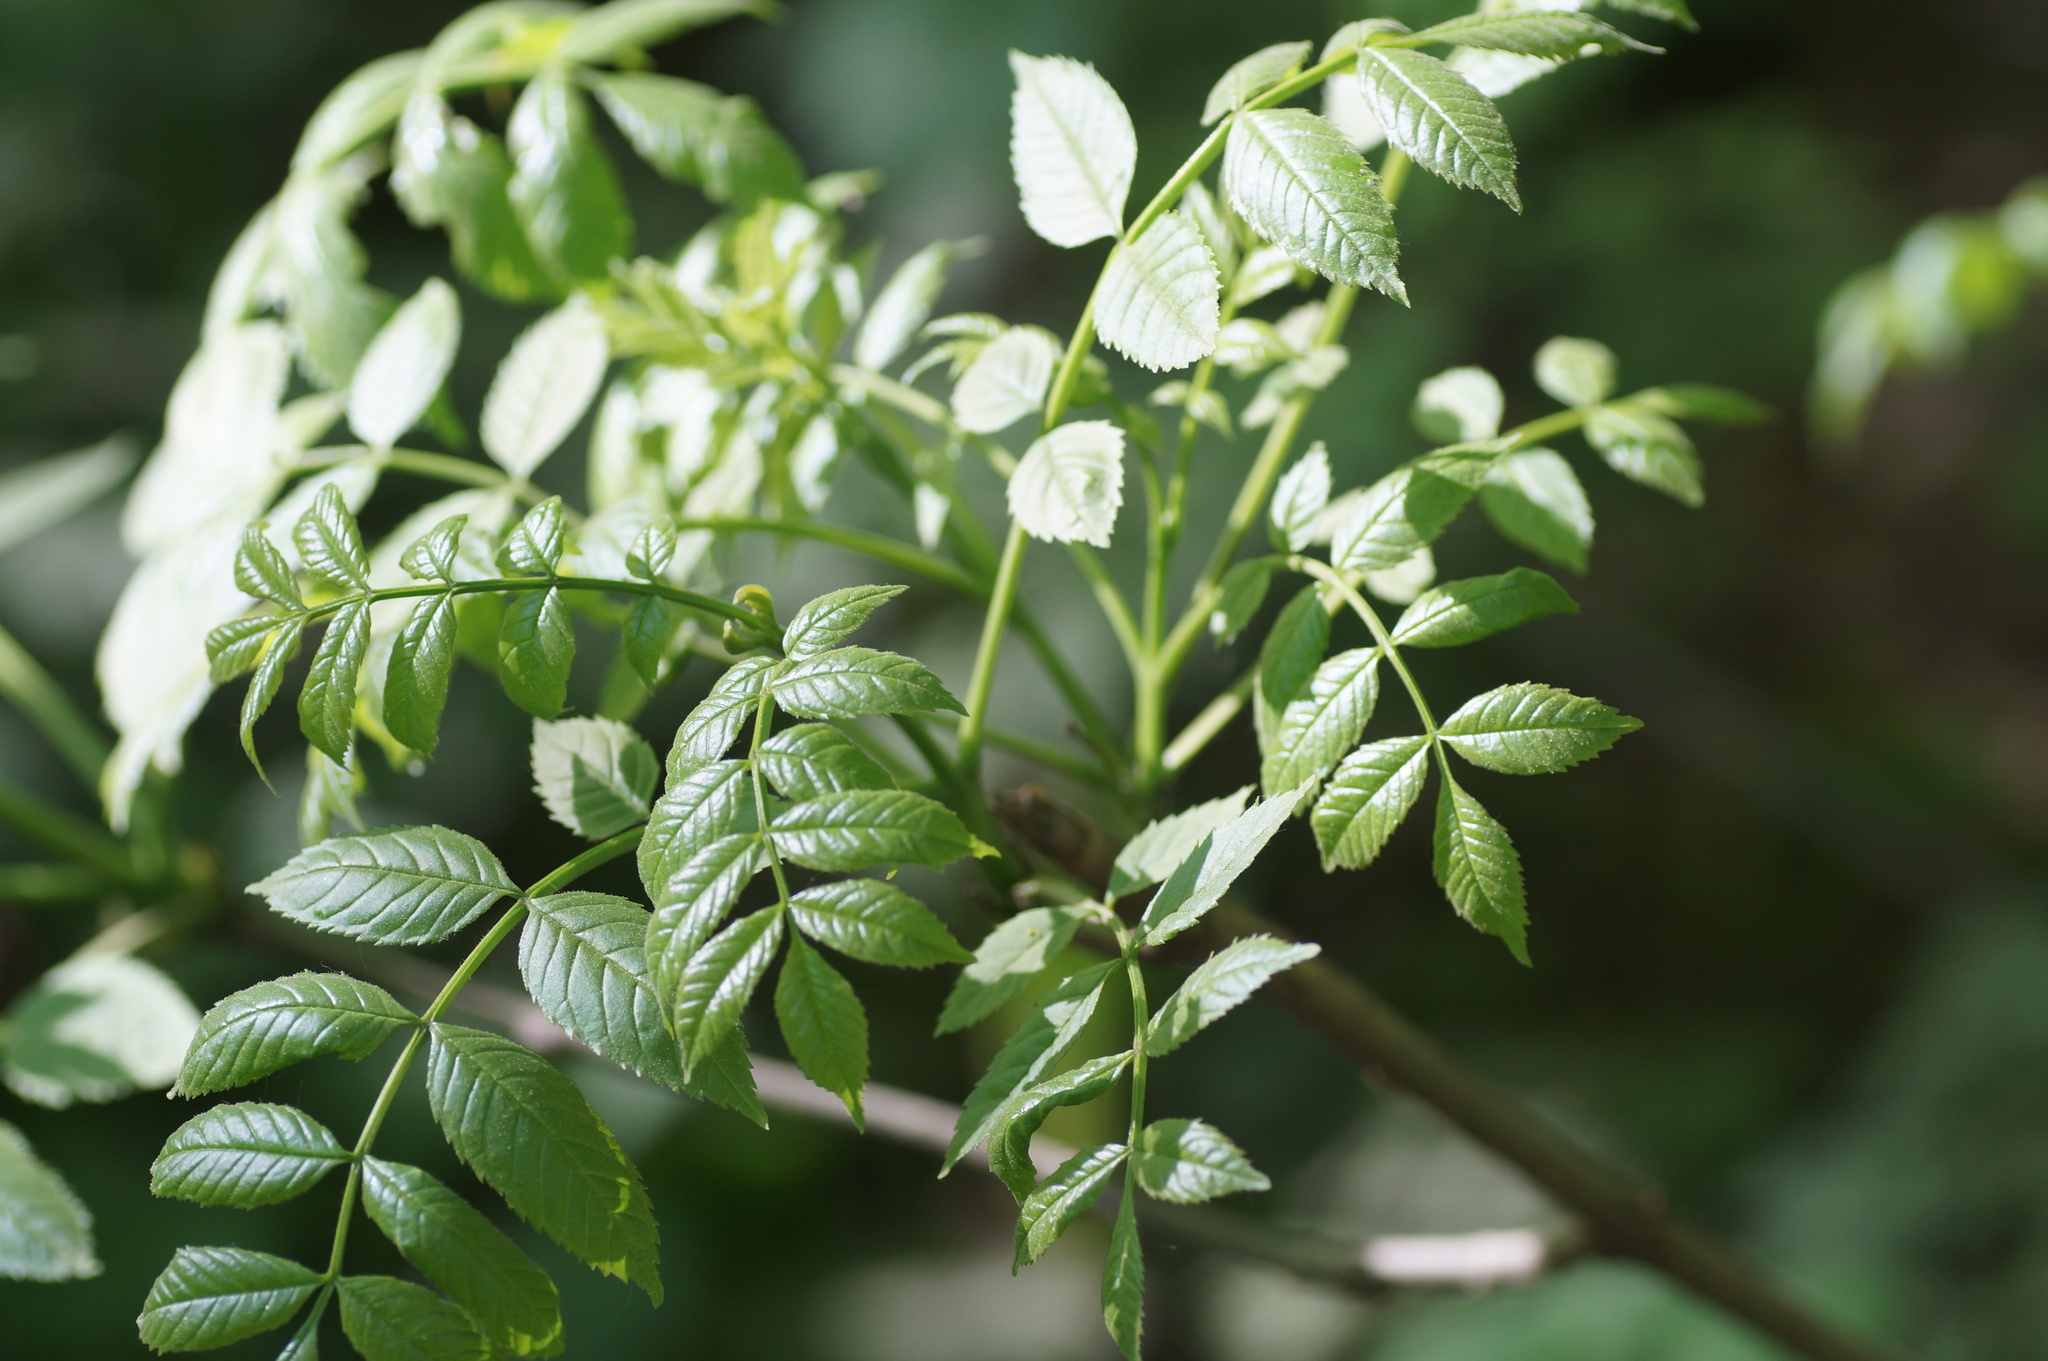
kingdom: Plantae
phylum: Tracheophyta
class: Magnoliopsida
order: Lamiales
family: Oleaceae
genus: Fraxinus
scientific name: Fraxinus excelsior
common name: European ash
